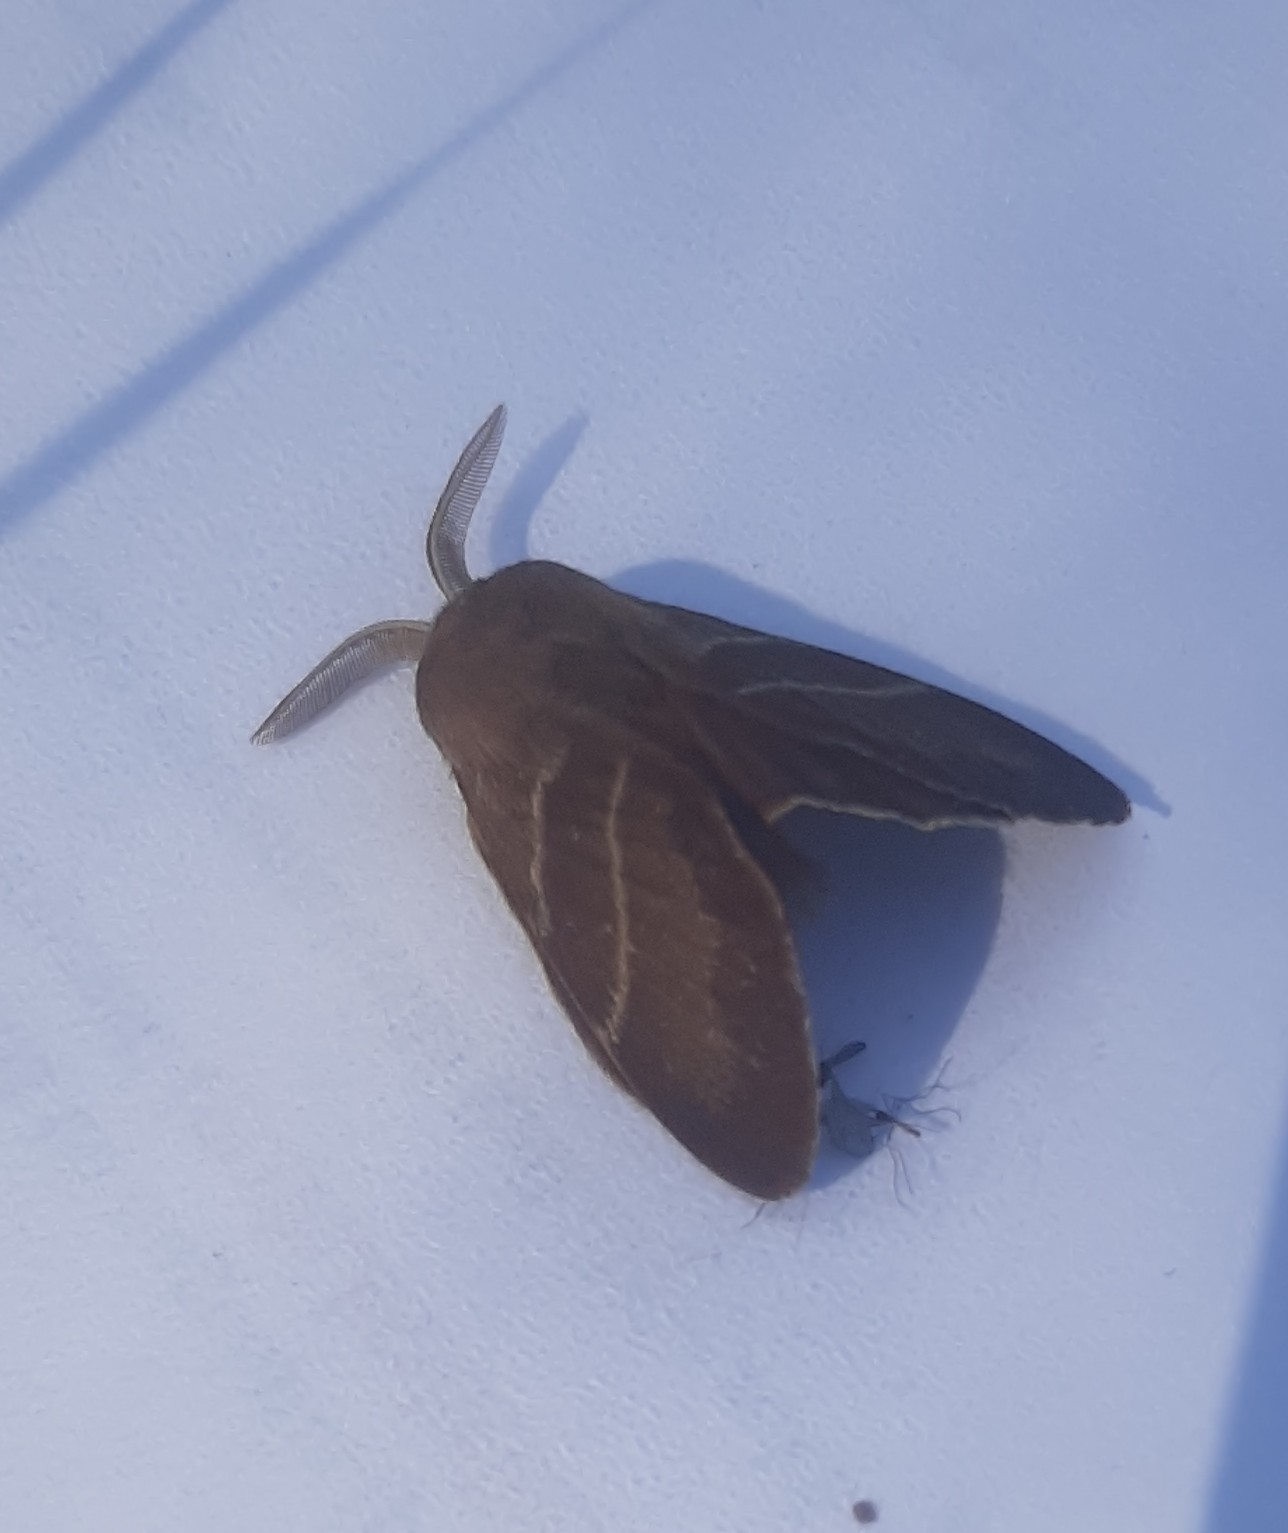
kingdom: Animalia
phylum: Arthropoda
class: Insecta
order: Lepidoptera
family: Lasiocampidae
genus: Macrothylacia
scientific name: Macrothylacia rubi
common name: Fox moth
